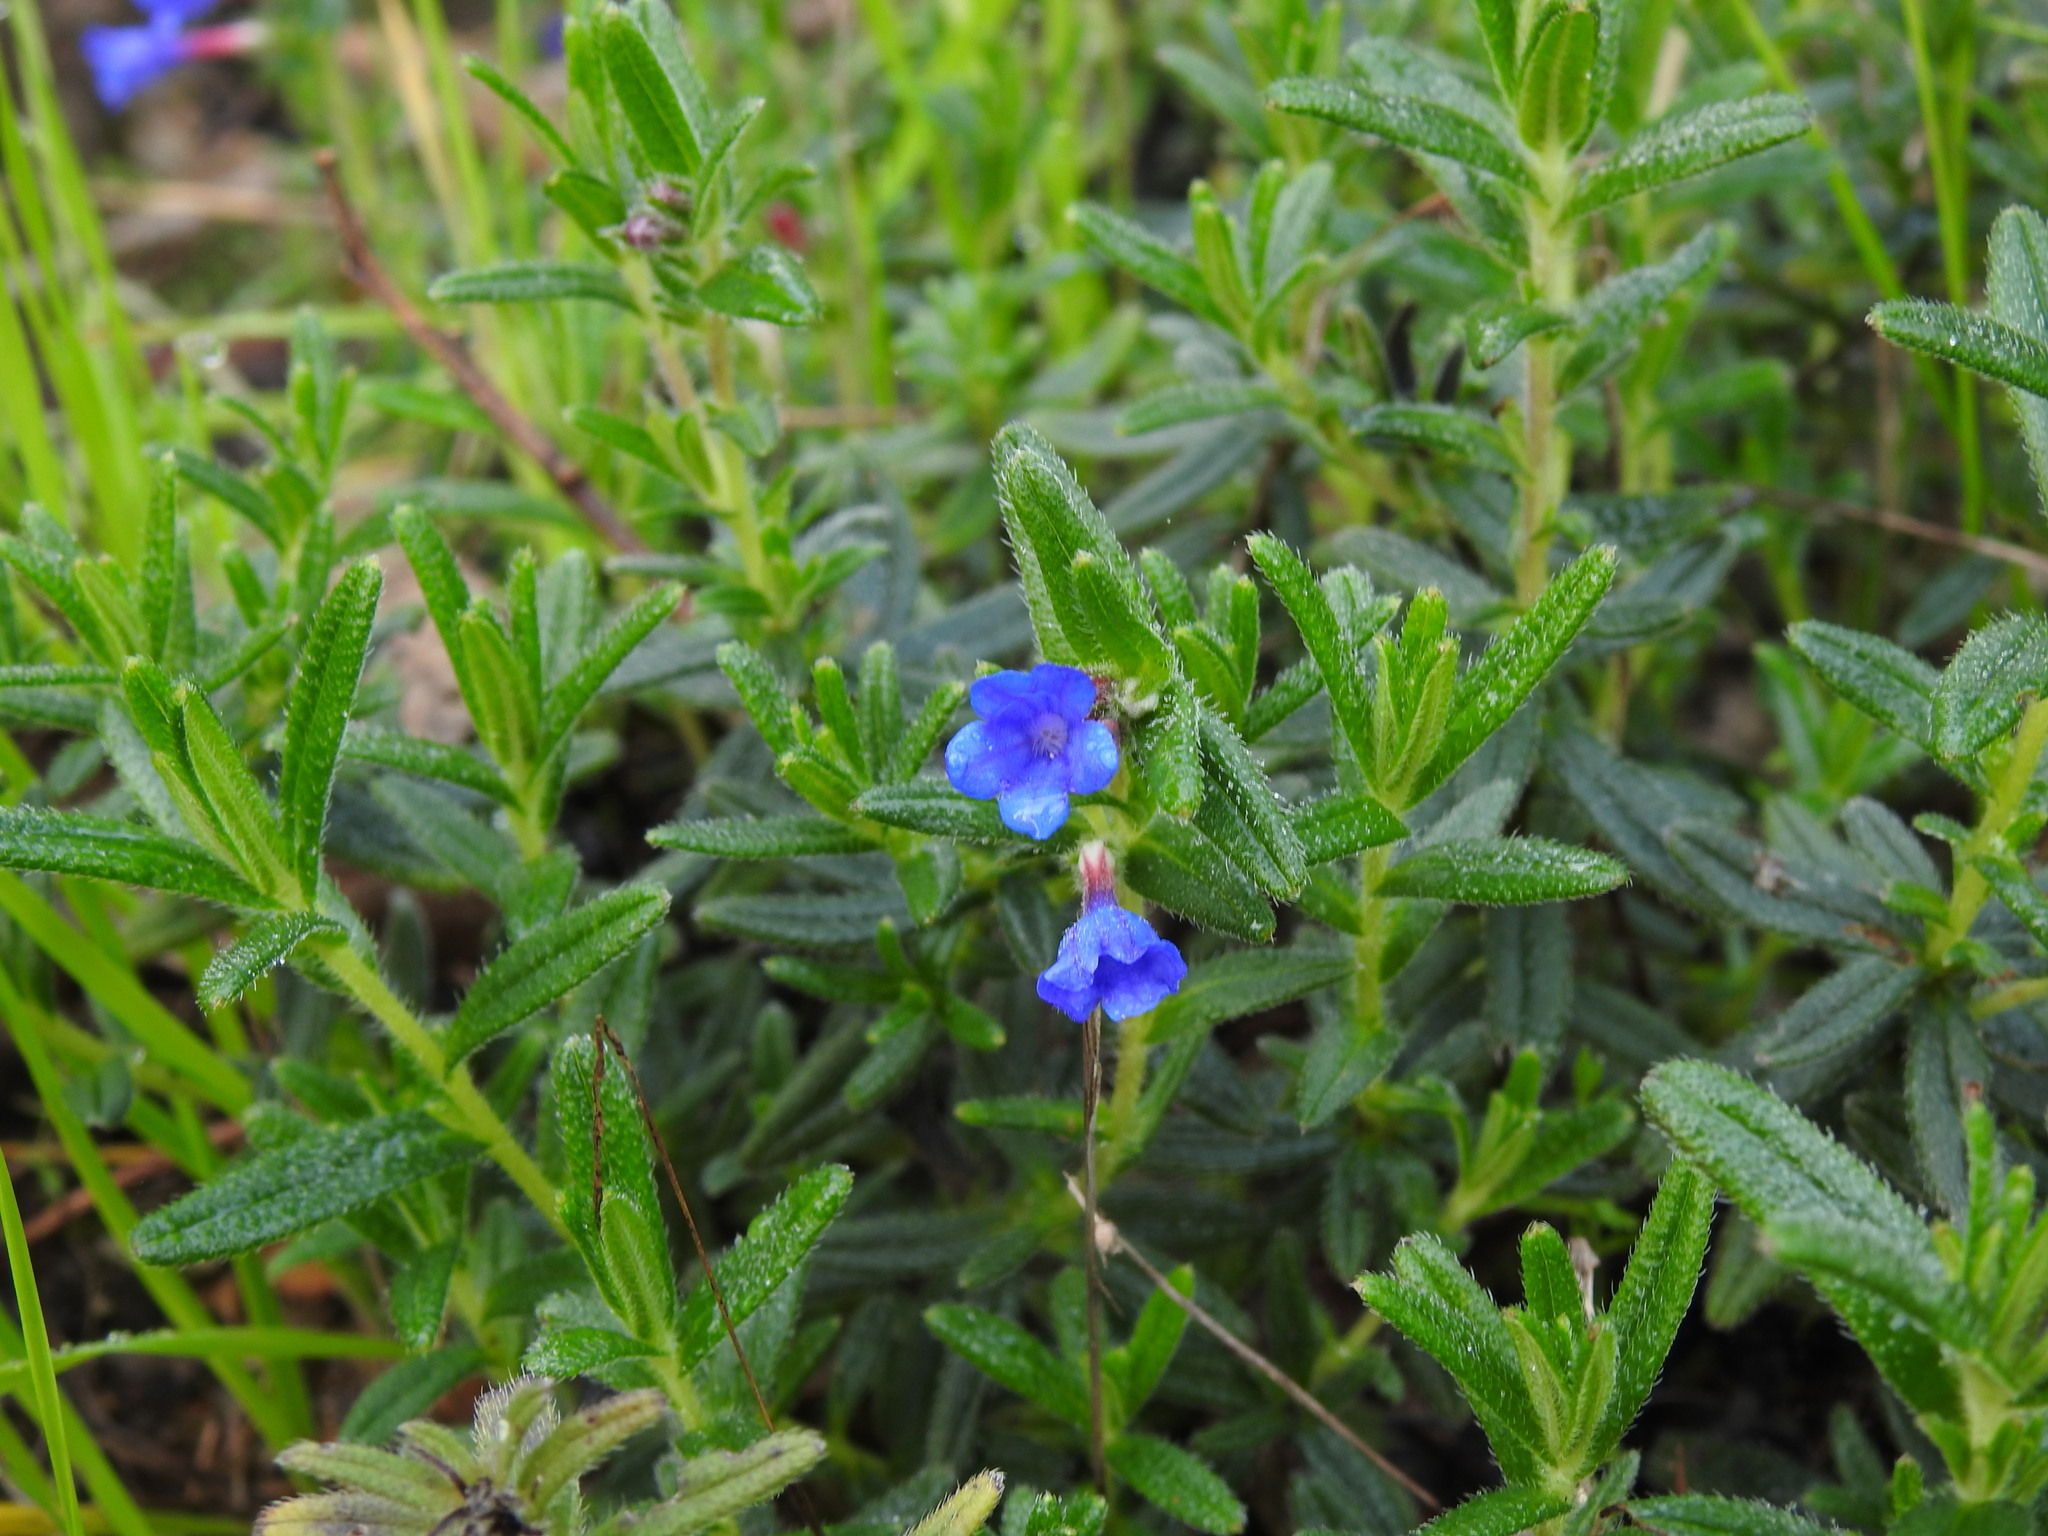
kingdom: Plantae
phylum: Tracheophyta
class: Magnoliopsida
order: Boraginales
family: Boraginaceae
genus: Glandora
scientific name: Glandora prostrata
